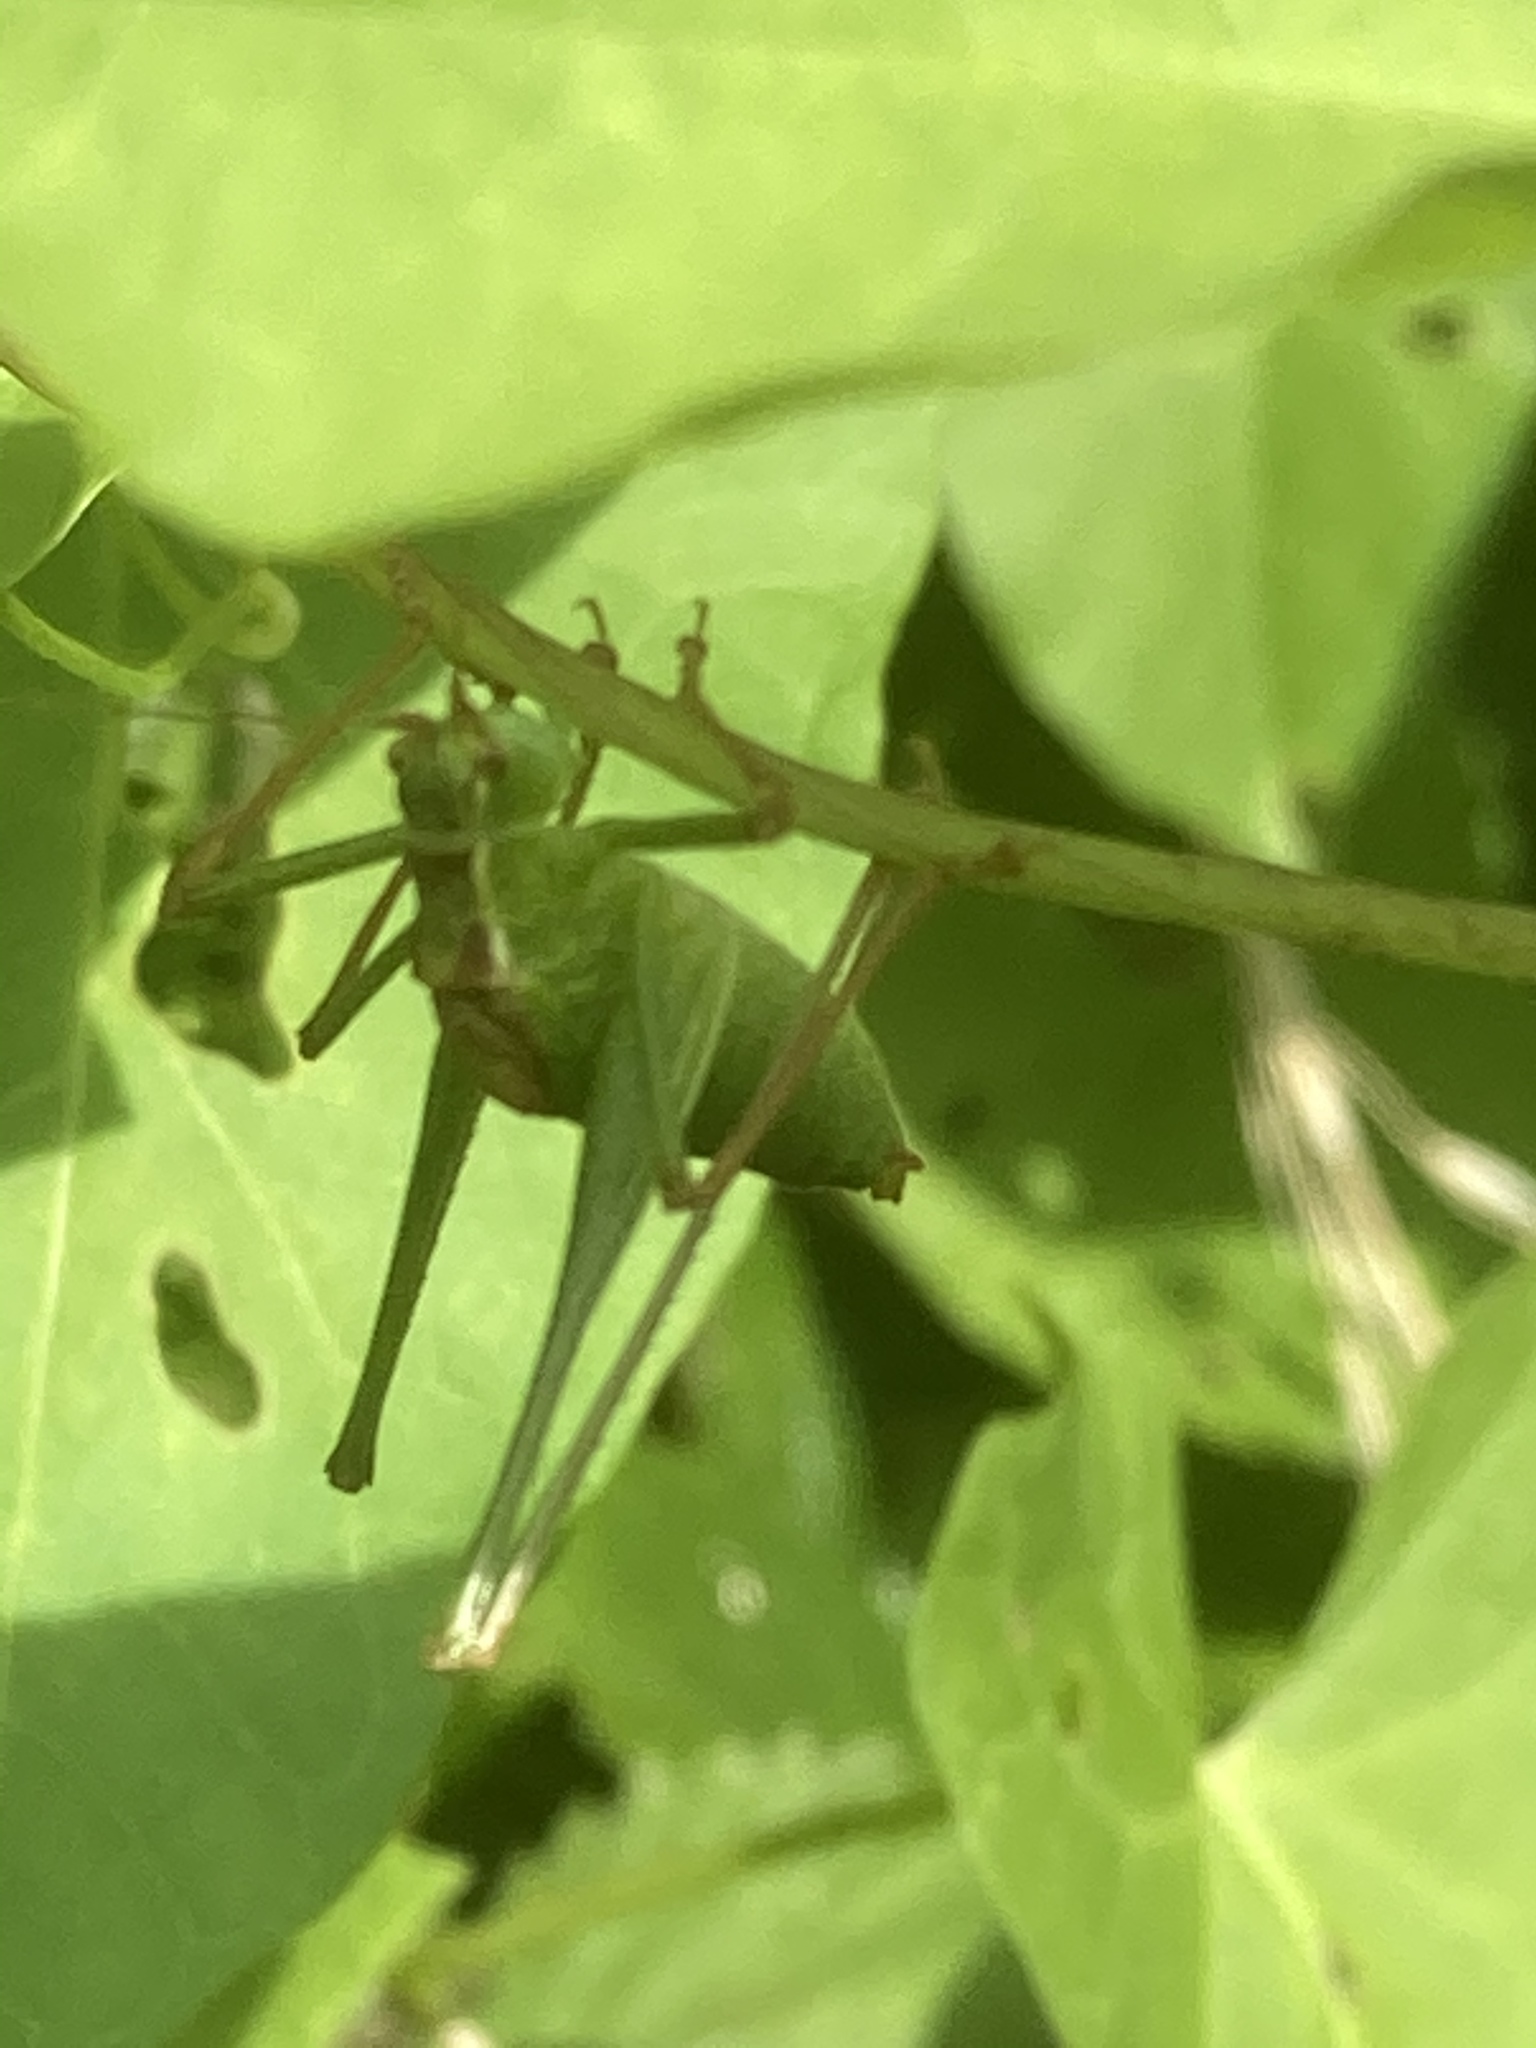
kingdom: Animalia
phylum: Arthropoda
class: Insecta
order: Orthoptera
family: Tettigoniidae
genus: Leptophyes
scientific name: Leptophyes punctatissima
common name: Speckled bush-cricket
